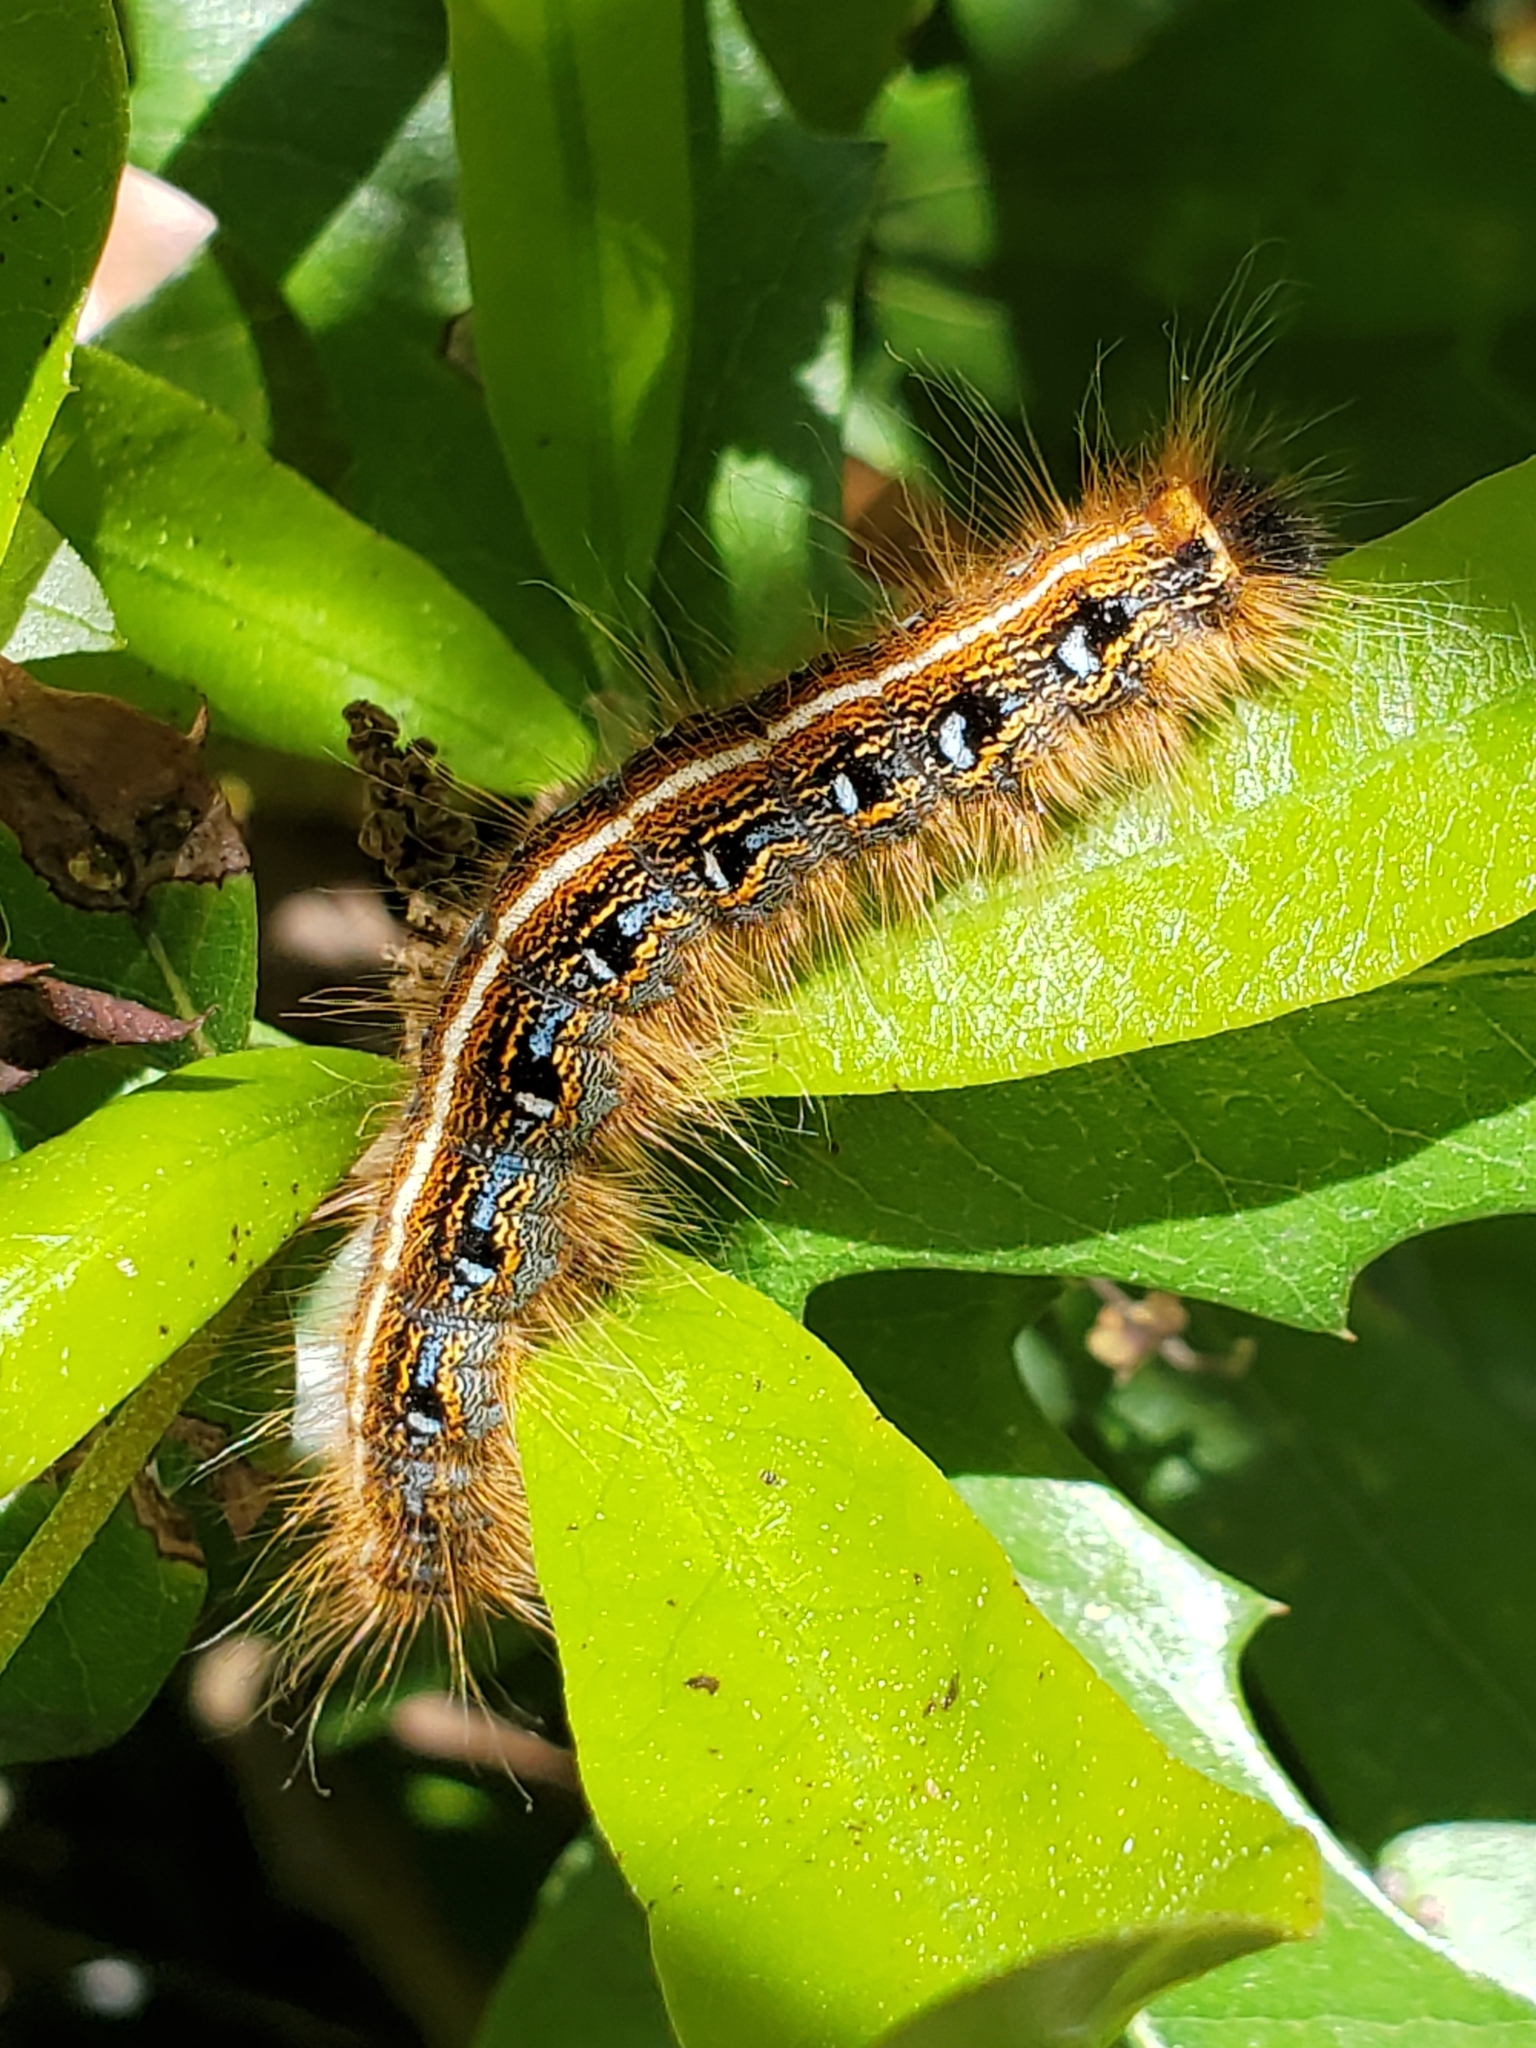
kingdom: Animalia
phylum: Arthropoda
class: Insecta
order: Lepidoptera
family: Lasiocampidae
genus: Malacosoma
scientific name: Malacosoma americana
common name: Eastern tent caterpillar moth
